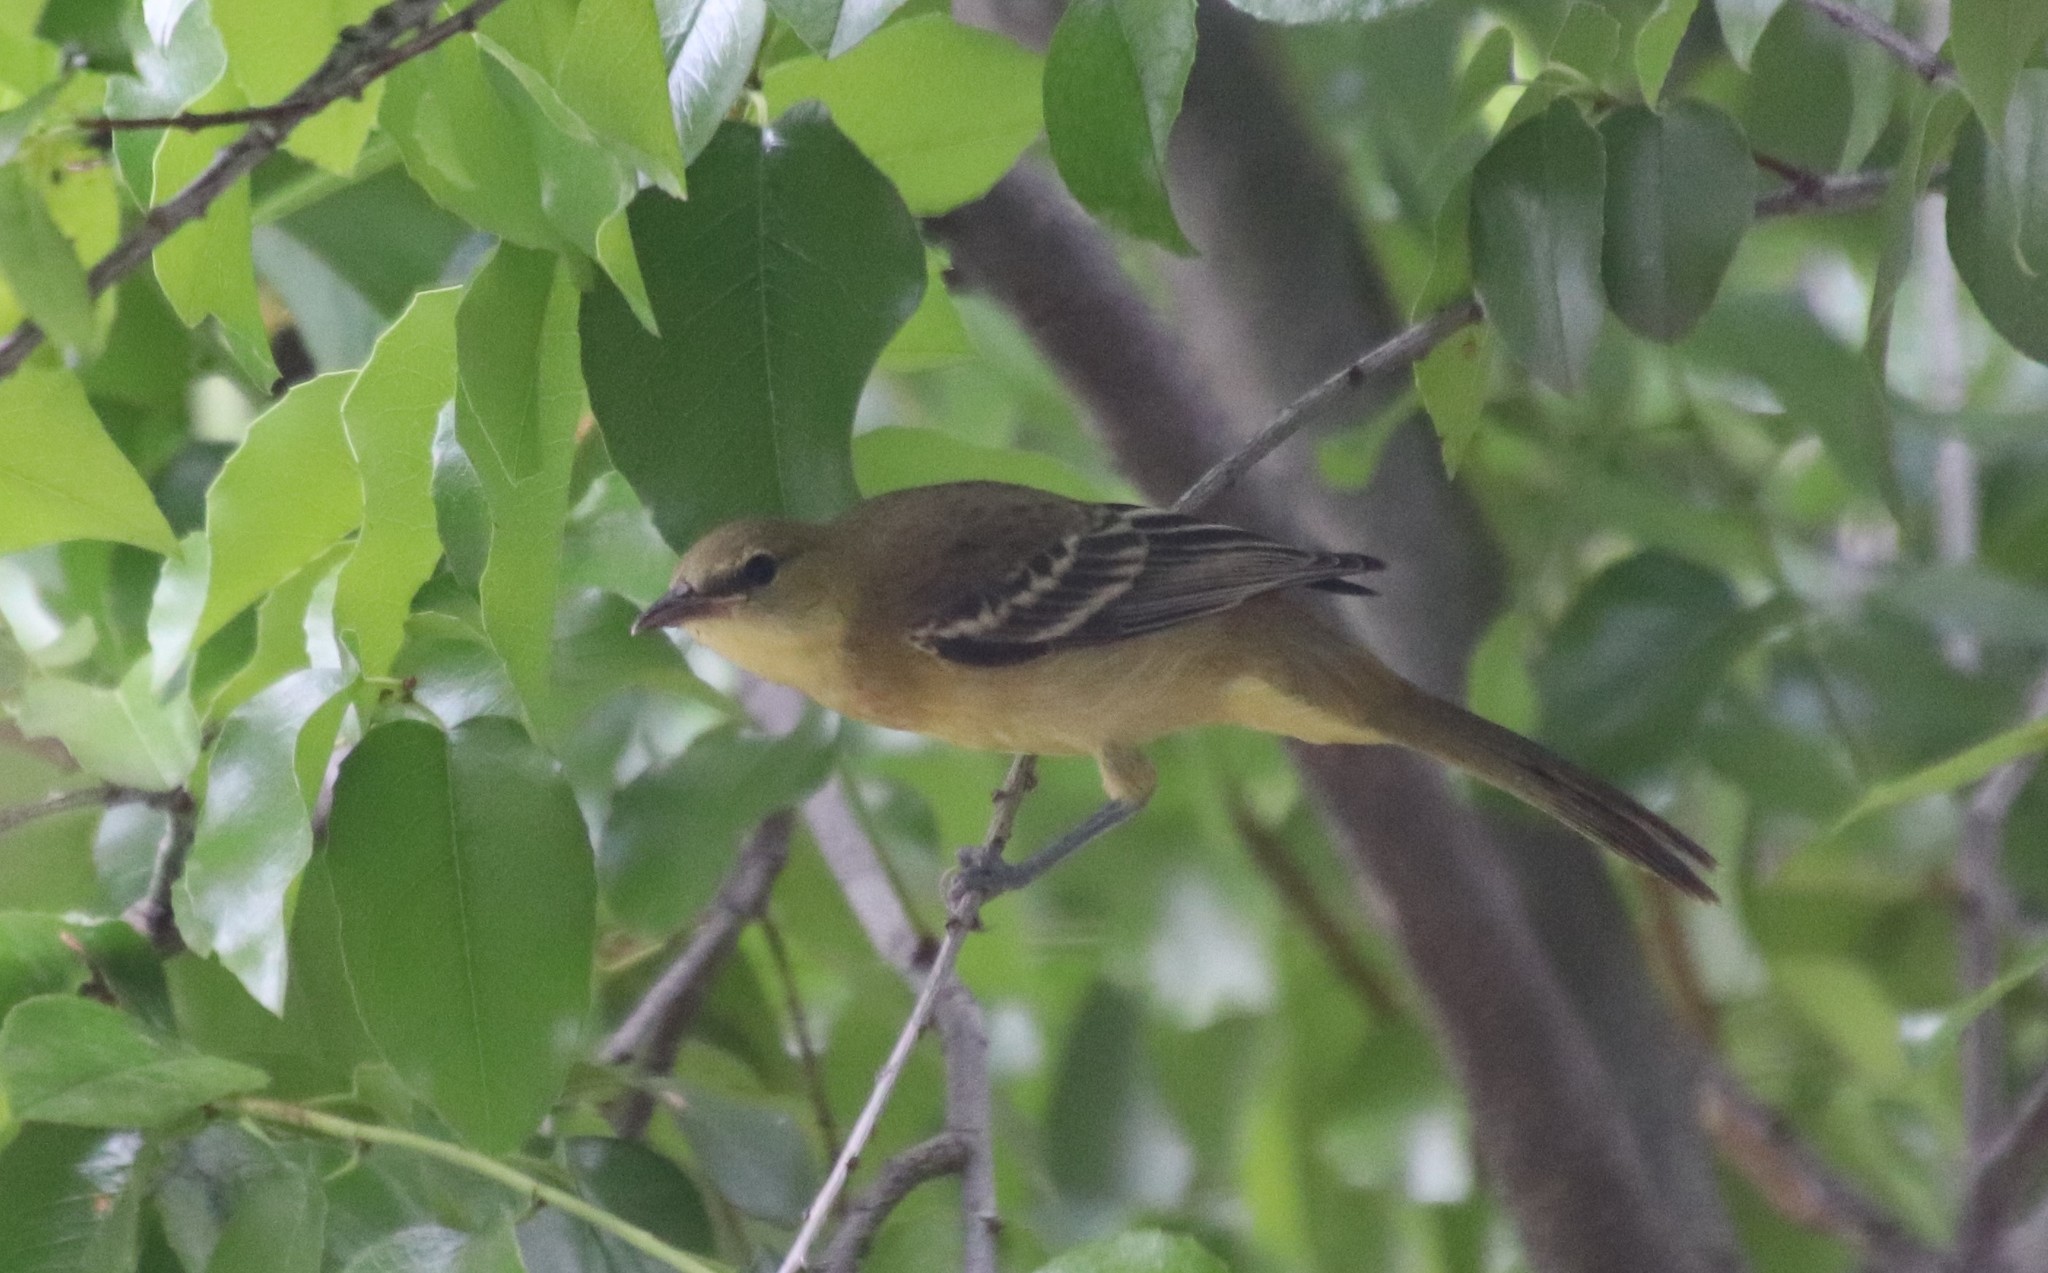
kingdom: Animalia
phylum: Chordata
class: Aves
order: Passeriformes
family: Icteridae
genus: Icterus
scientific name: Icterus cucullatus
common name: Hooded oriole
